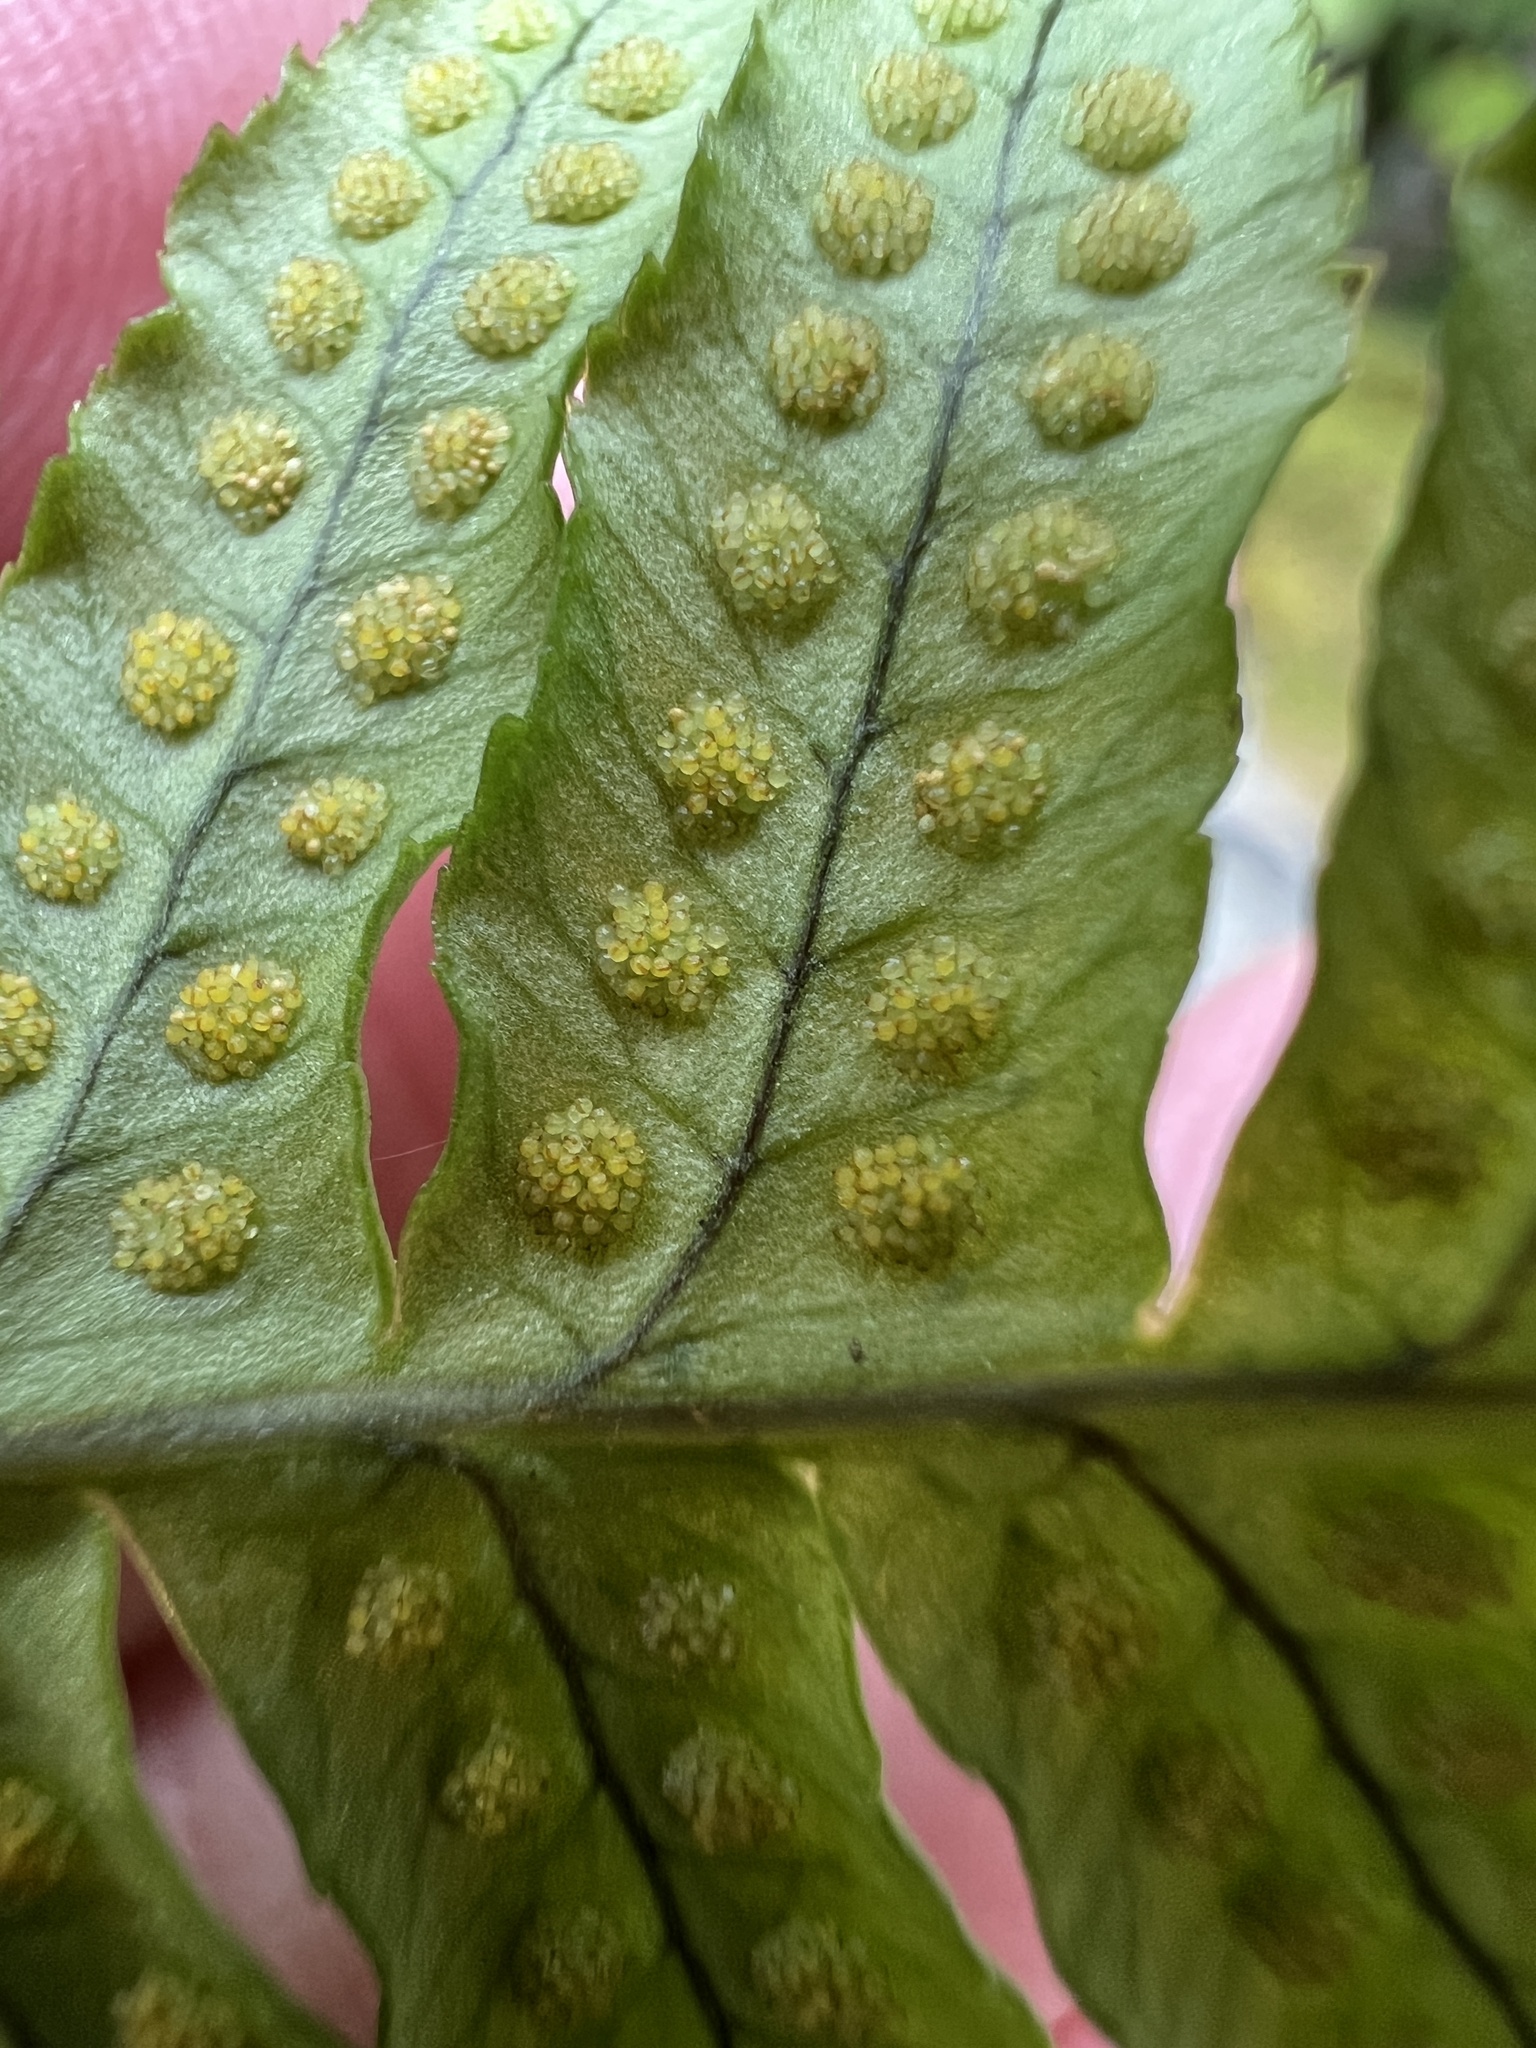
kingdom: Plantae
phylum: Tracheophyta
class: Polypodiopsida
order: Polypodiales
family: Polypodiaceae
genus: Polypodium
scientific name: Polypodium glycyrrhiza
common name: Licorice fern
